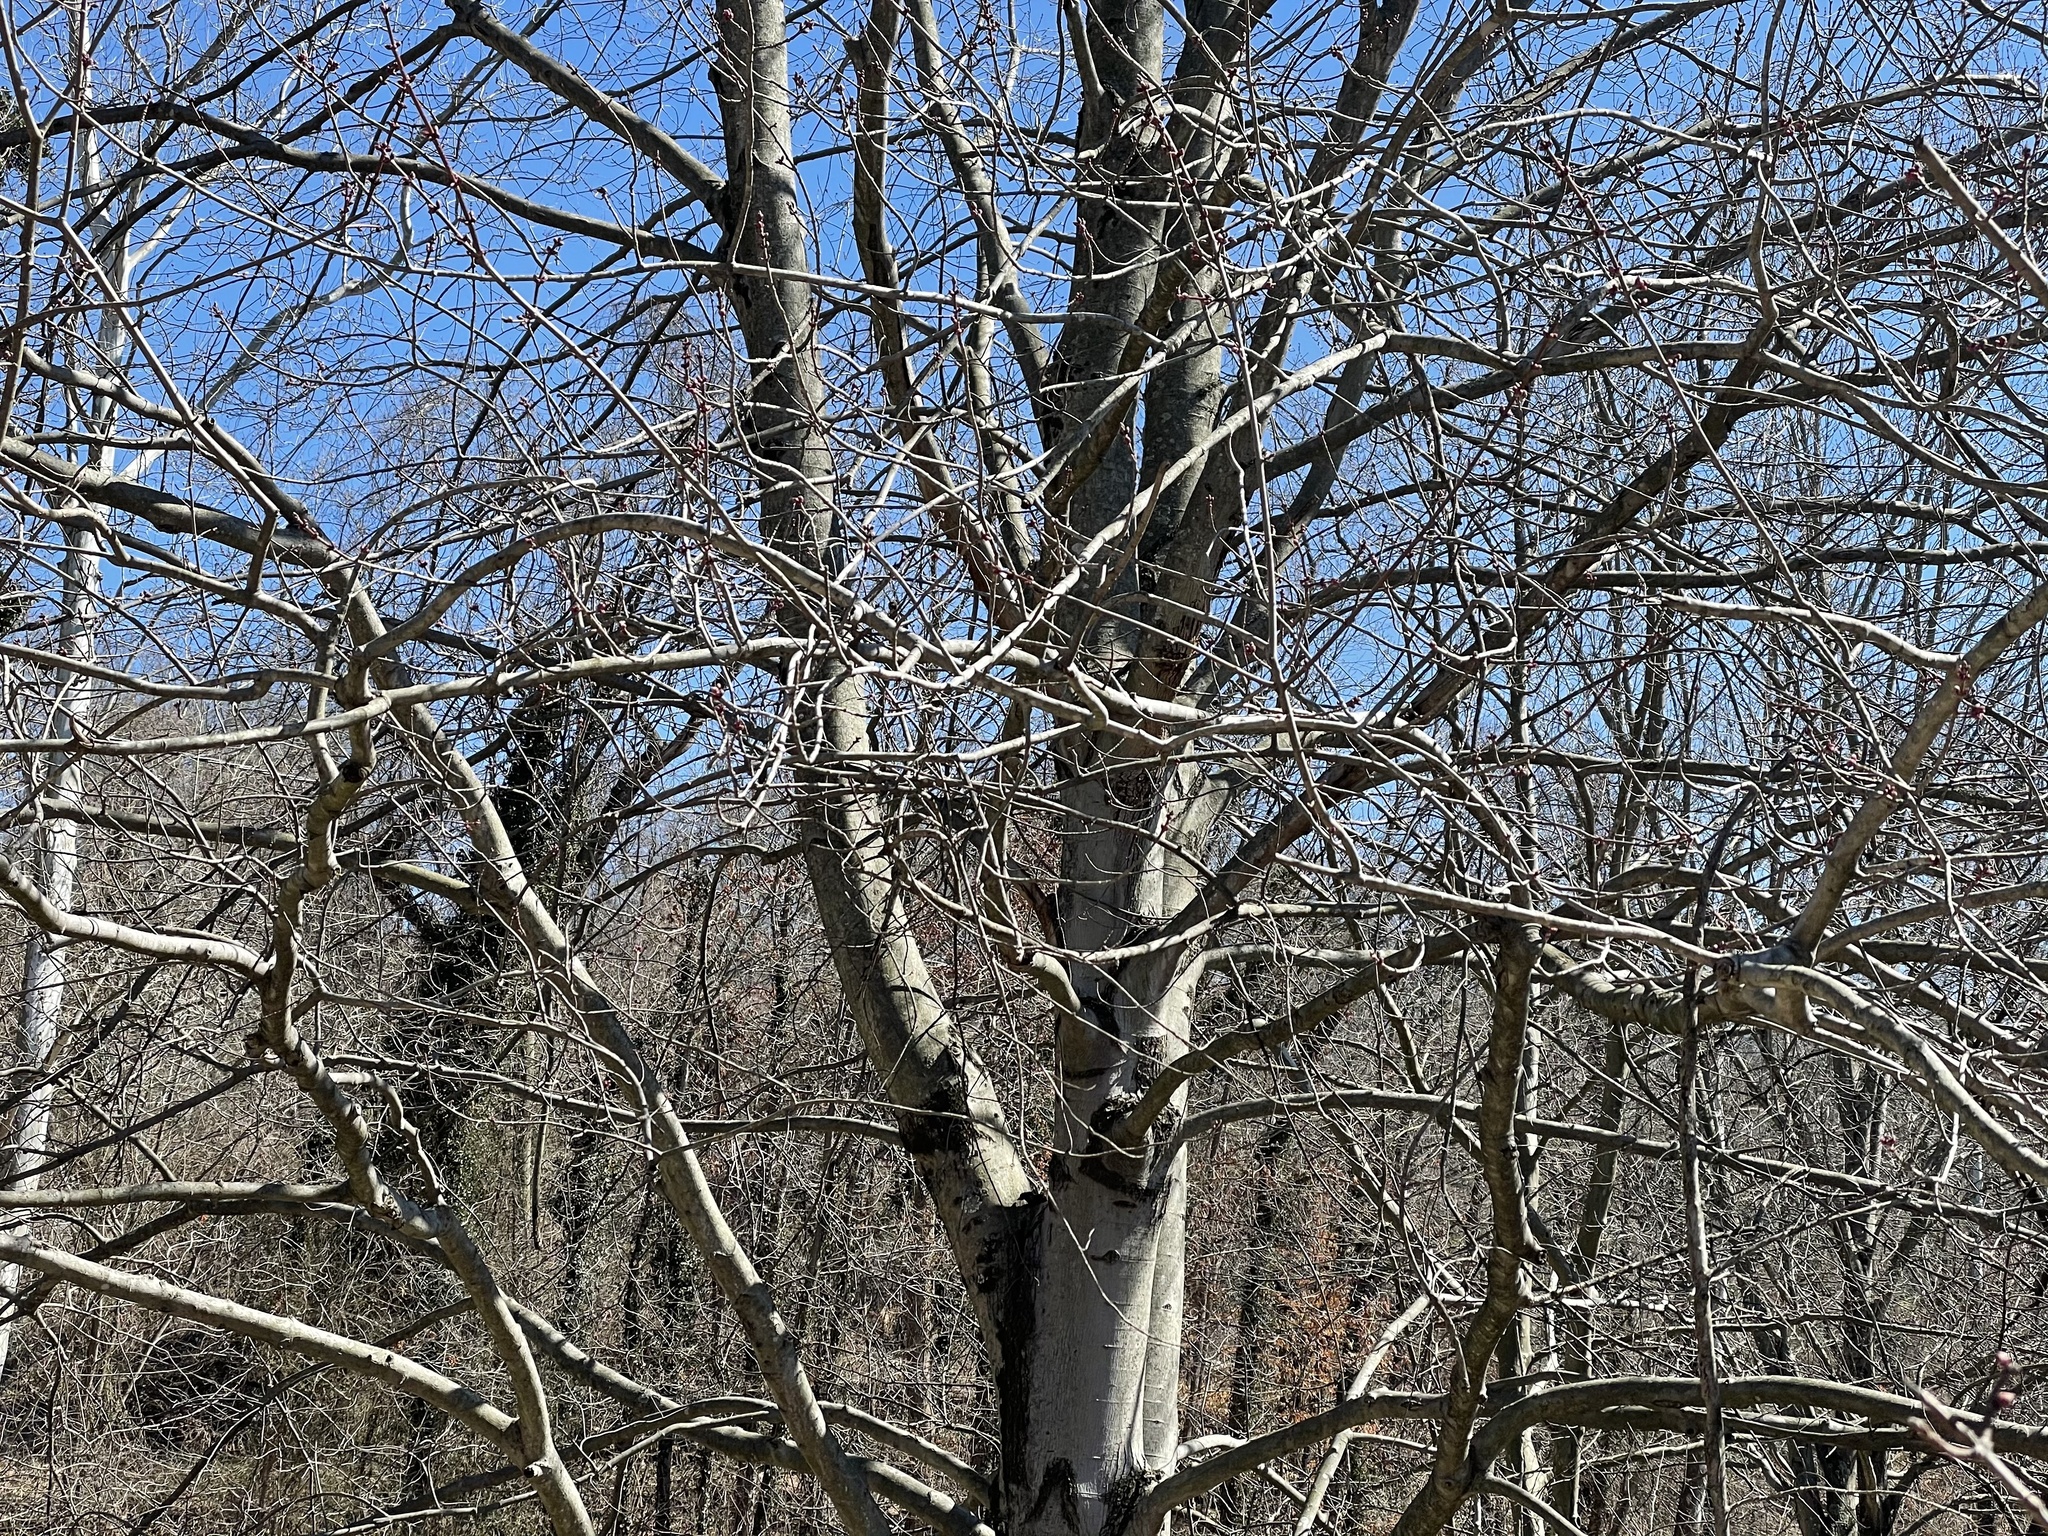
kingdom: Plantae
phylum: Tracheophyta
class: Magnoliopsida
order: Sapindales
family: Sapindaceae
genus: Acer
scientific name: Acer rubrum
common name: Red maple
